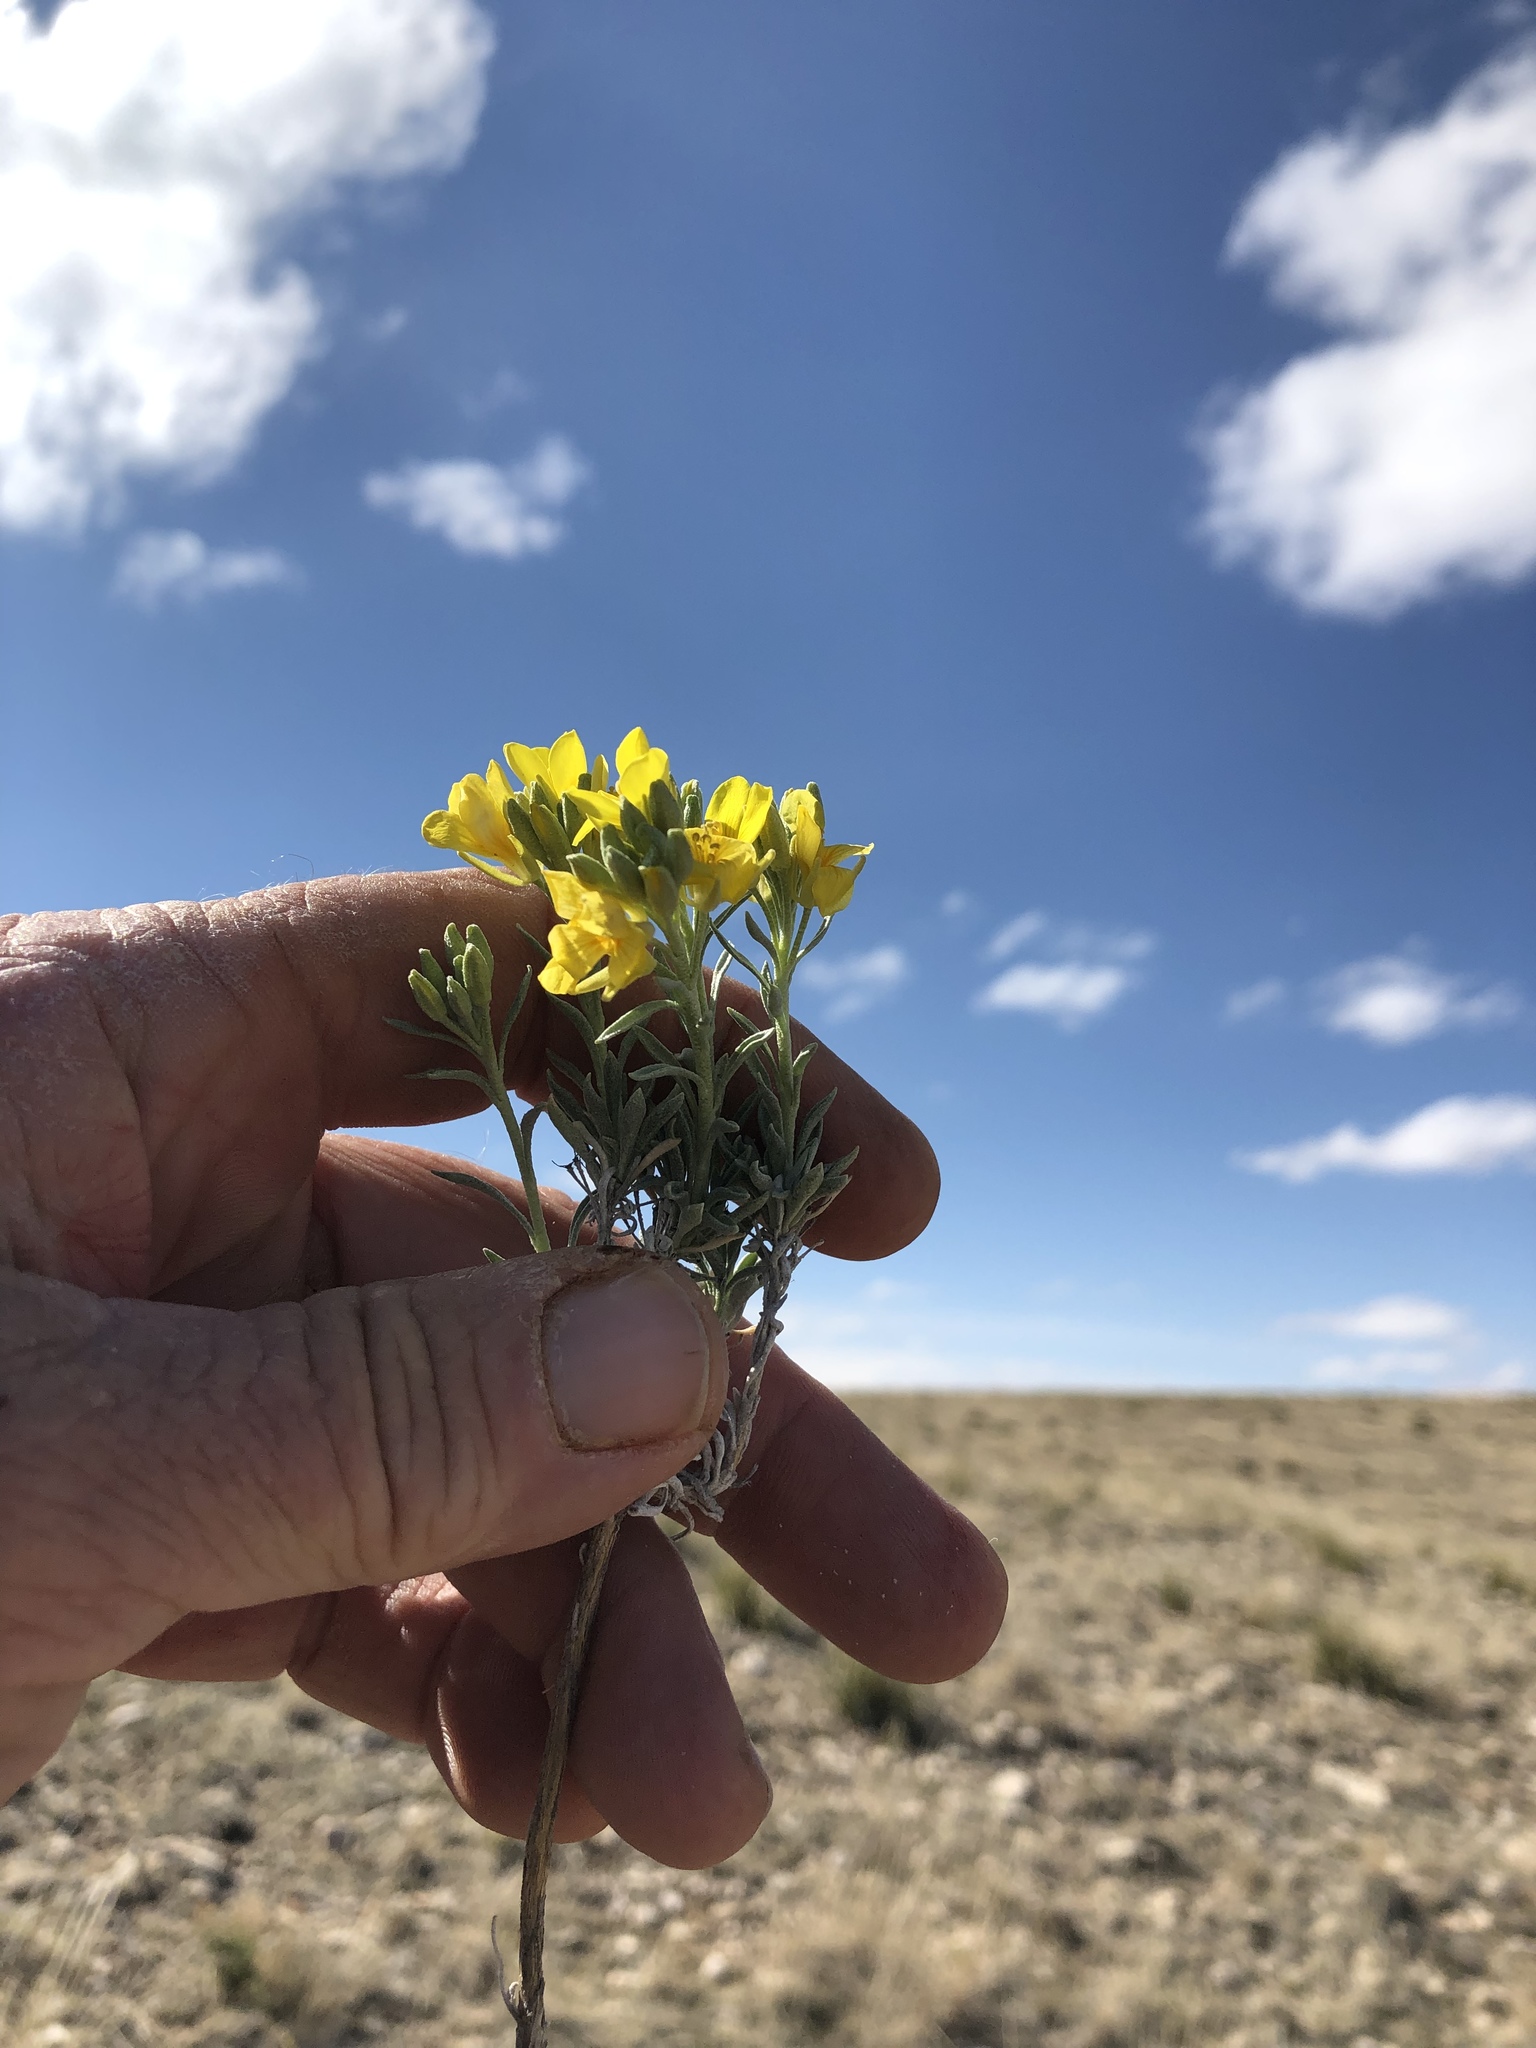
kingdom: Plantae
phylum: Tracheophyta
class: Magnoliopsida
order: Brassicales
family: Brassicaceae
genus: Physaria
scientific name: Physaria fendleri
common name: Fendler's bladderpod
